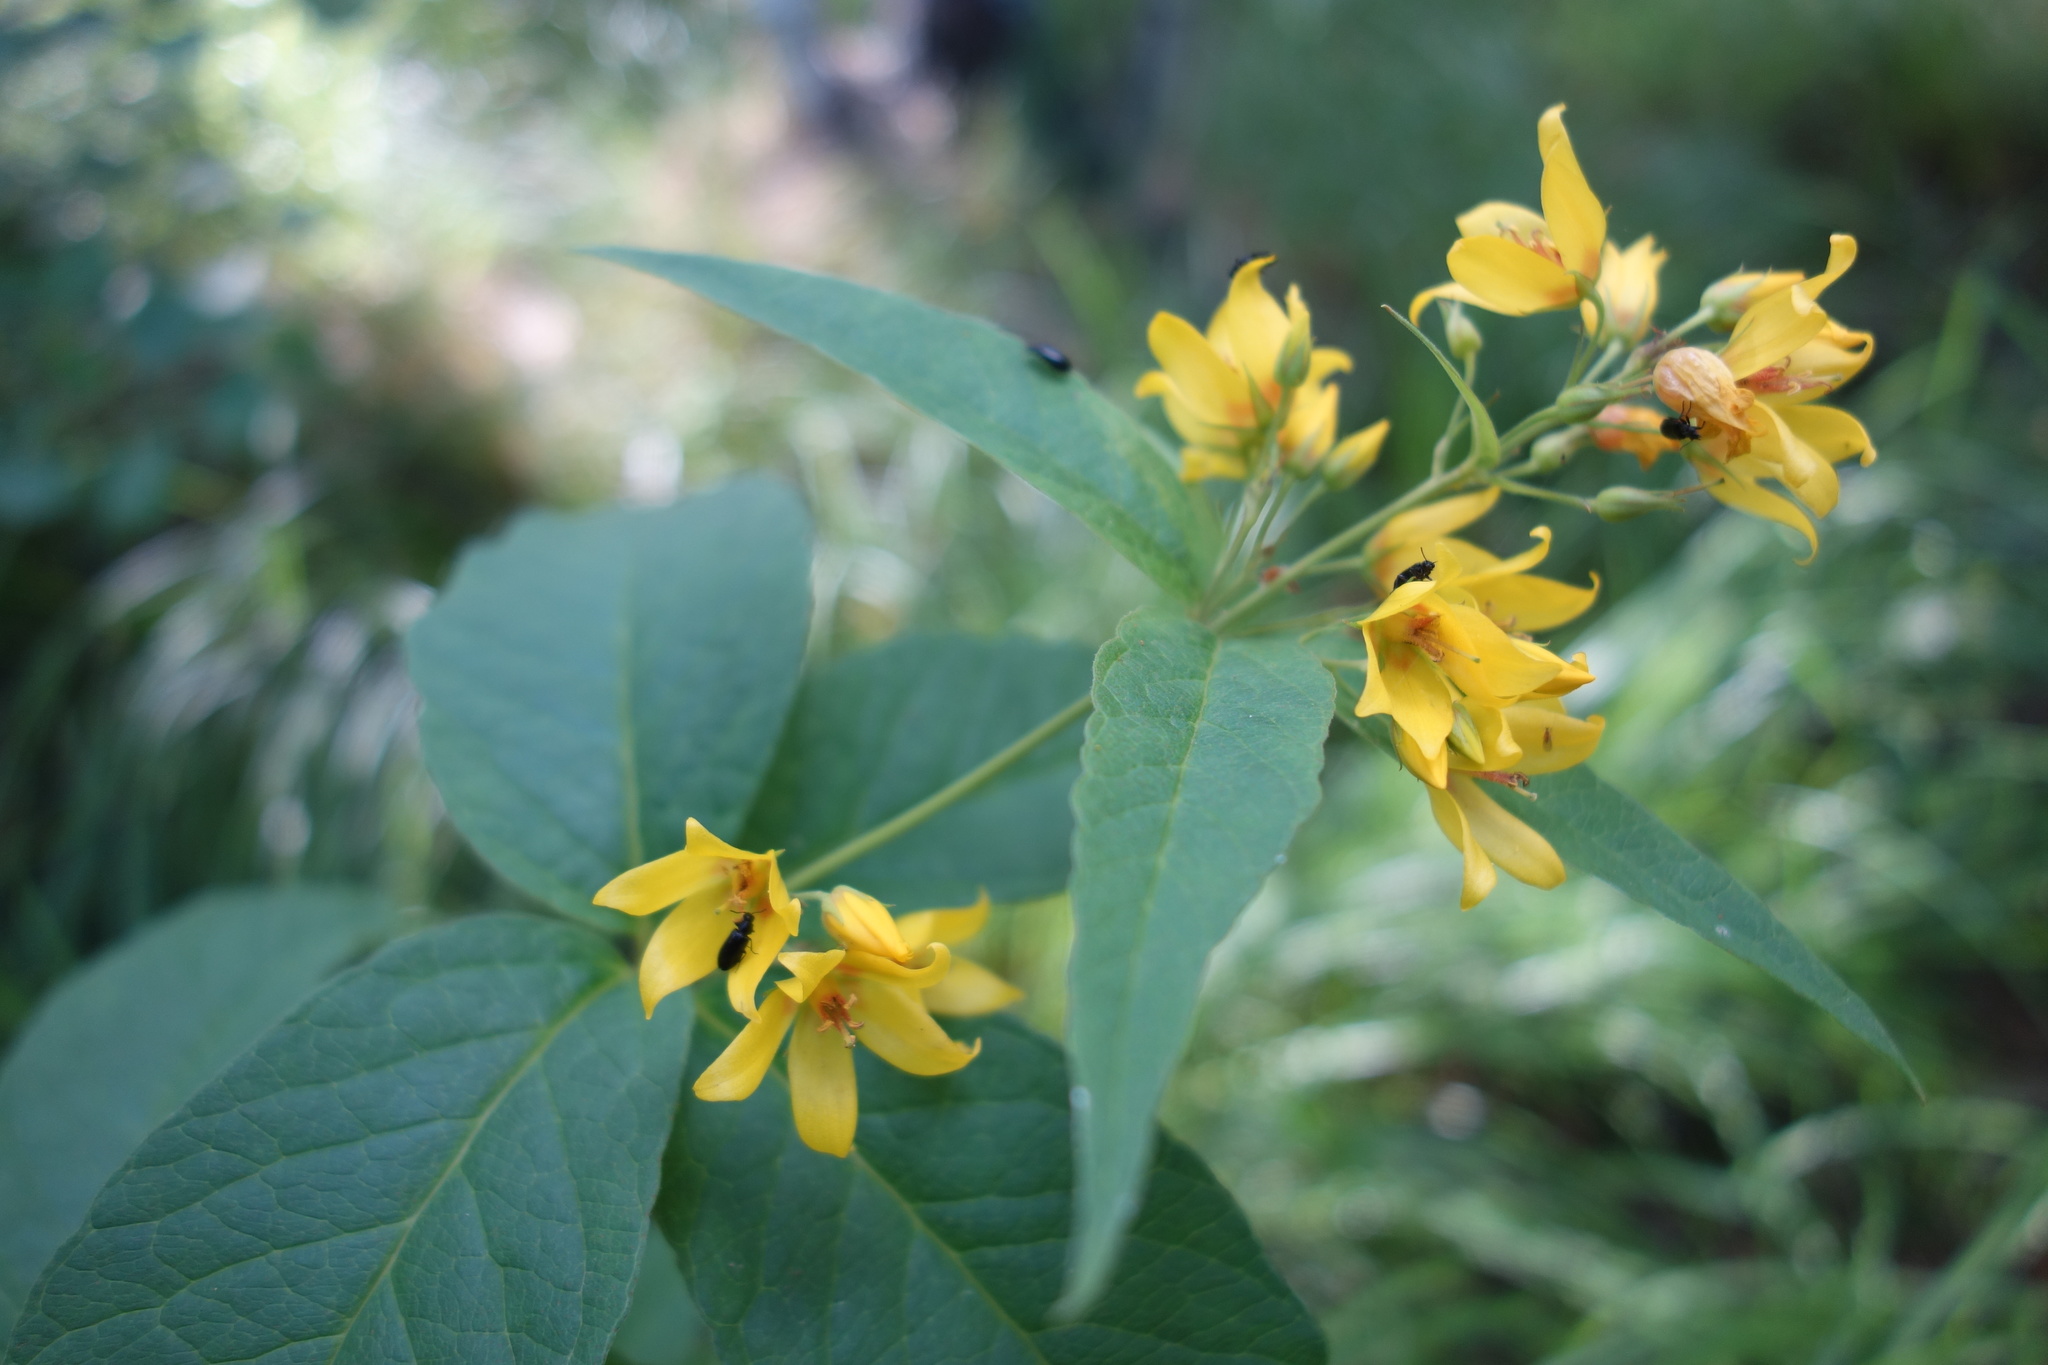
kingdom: Plantae
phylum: Tracheophyta
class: Magnoliopsida
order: Ericales
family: Primulaceae
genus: Lysimachia
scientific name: Lysimachia vulgaris
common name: Yellow loosestrife
